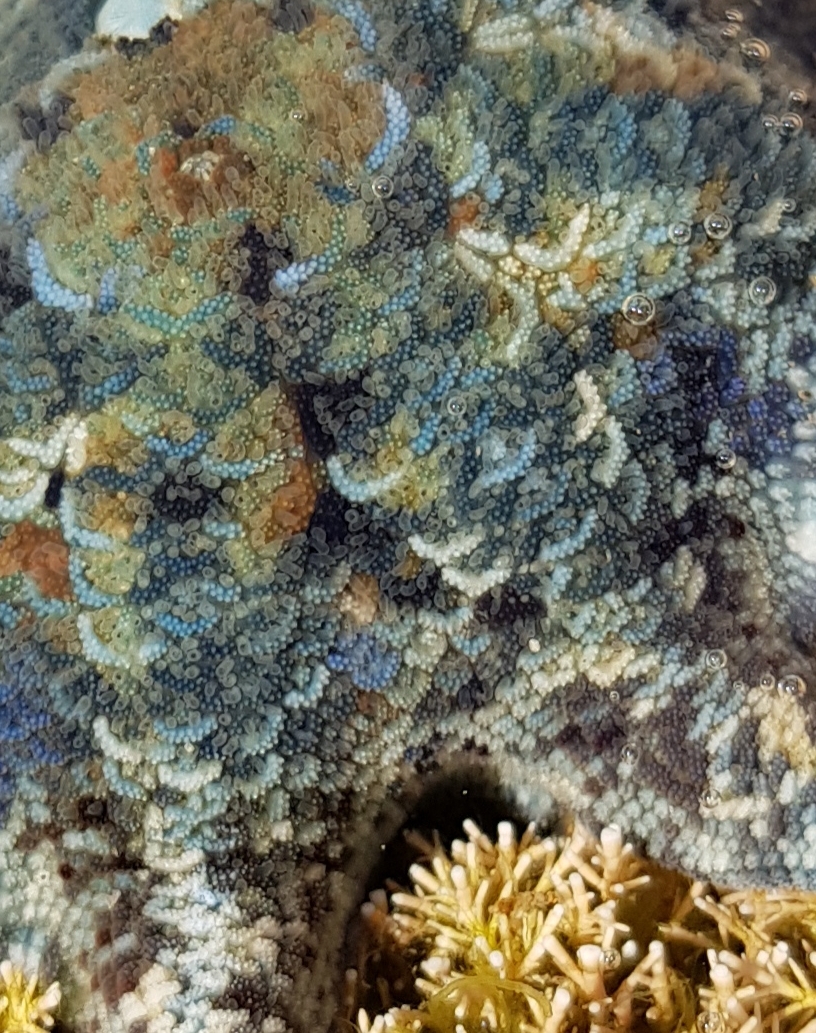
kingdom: Animalia
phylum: Echinodermata
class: Asteroidea
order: Valvatida
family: Asterinidae
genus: Meridiastra
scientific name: Meridiastra calcar
